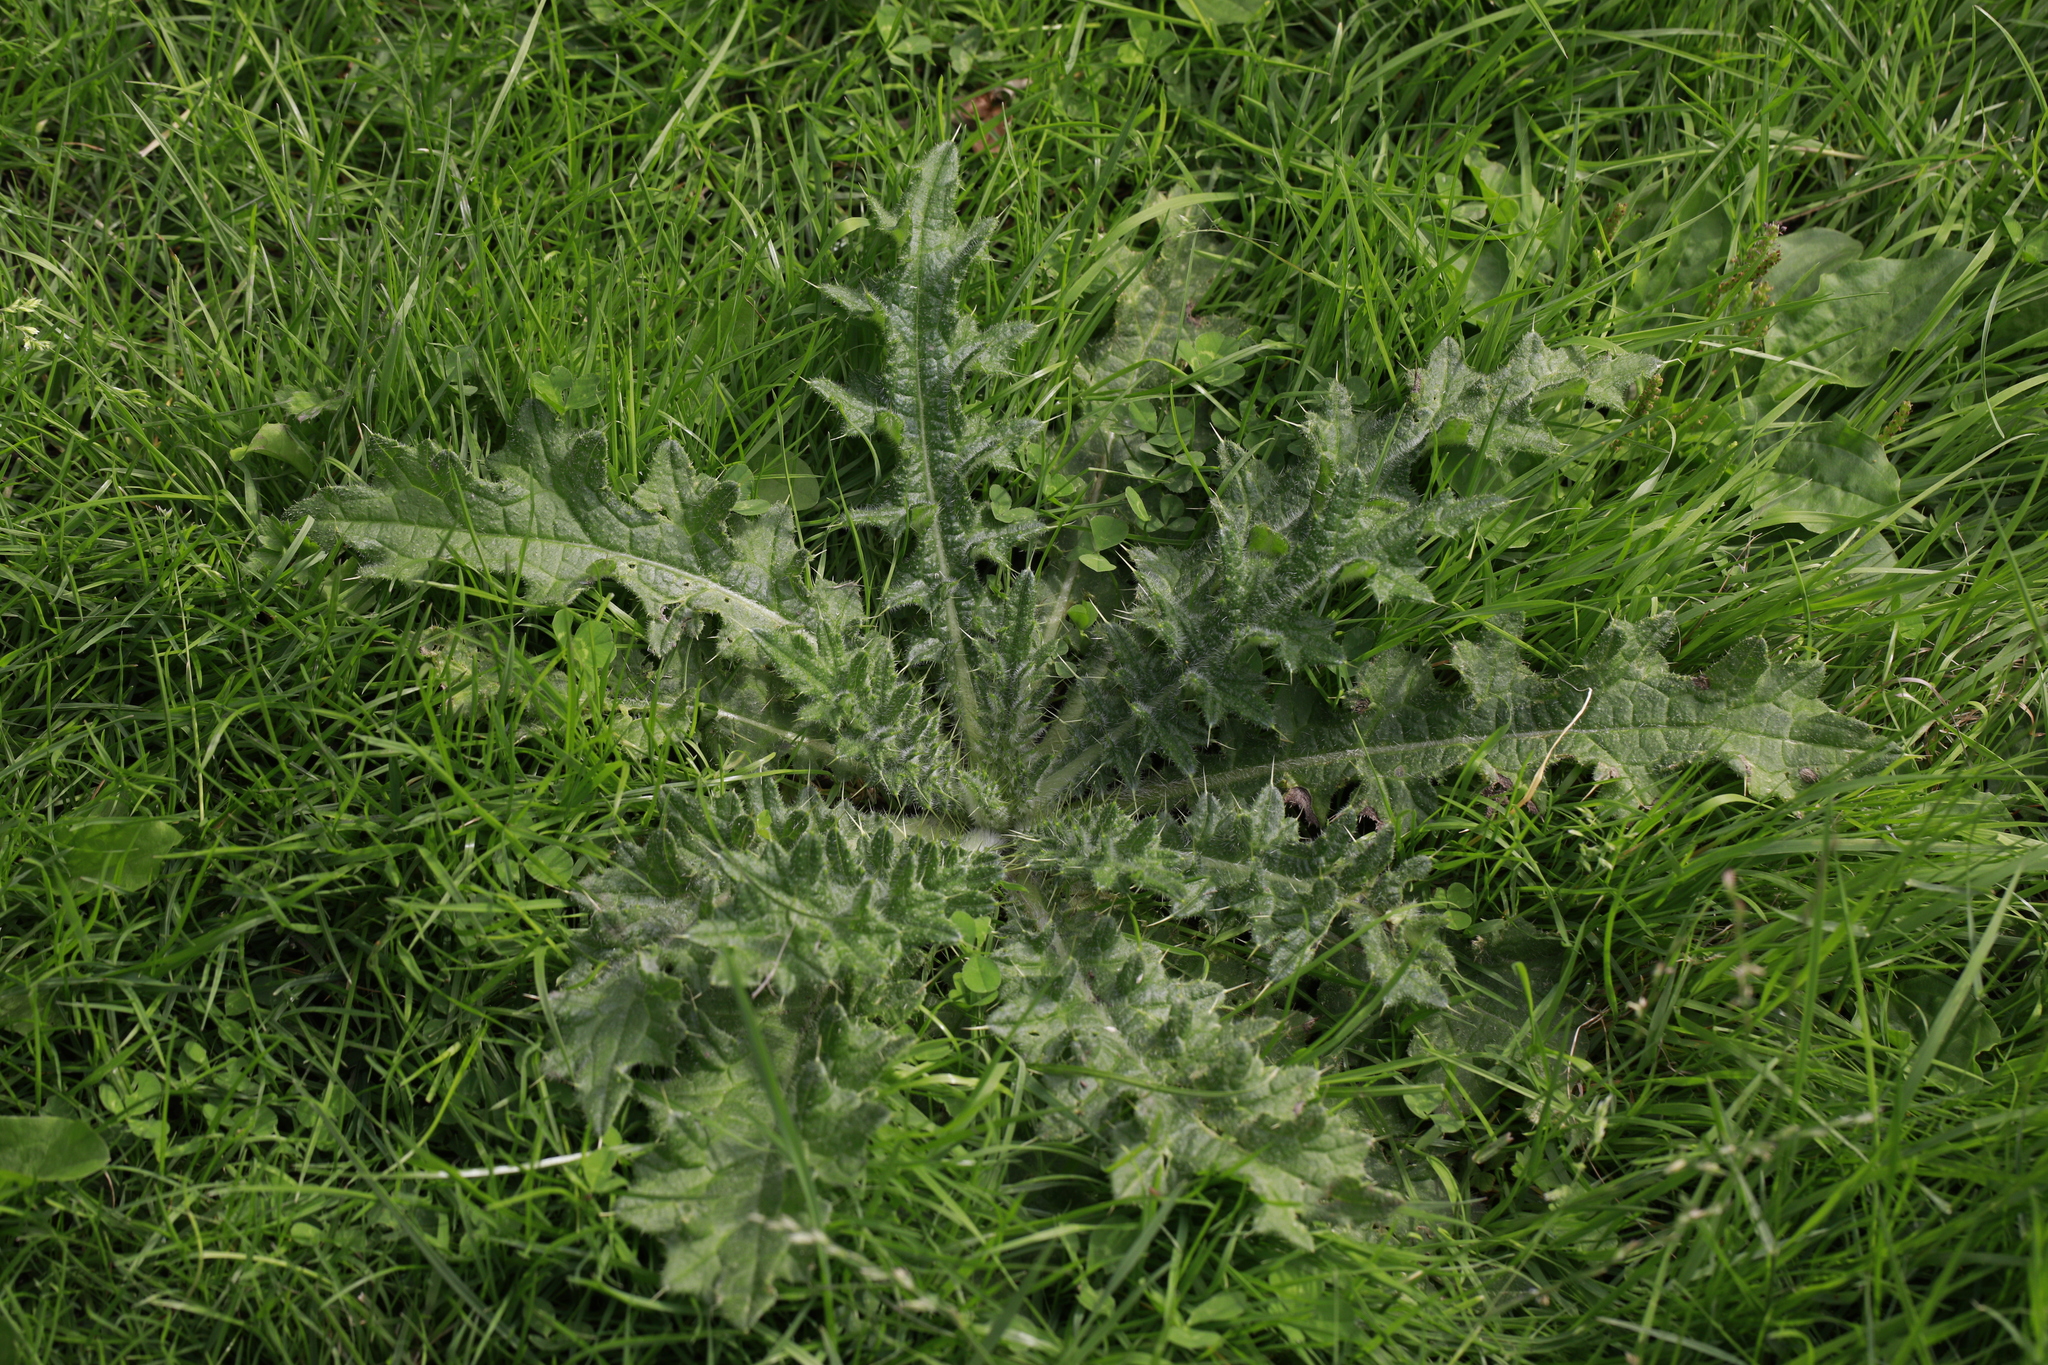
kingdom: Plantae
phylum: Tracheophyta
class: Magnoliopsida
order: Asterales
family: Asteraceae
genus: Cirsium
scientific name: Cirsium vulgare
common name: Bull thistle
